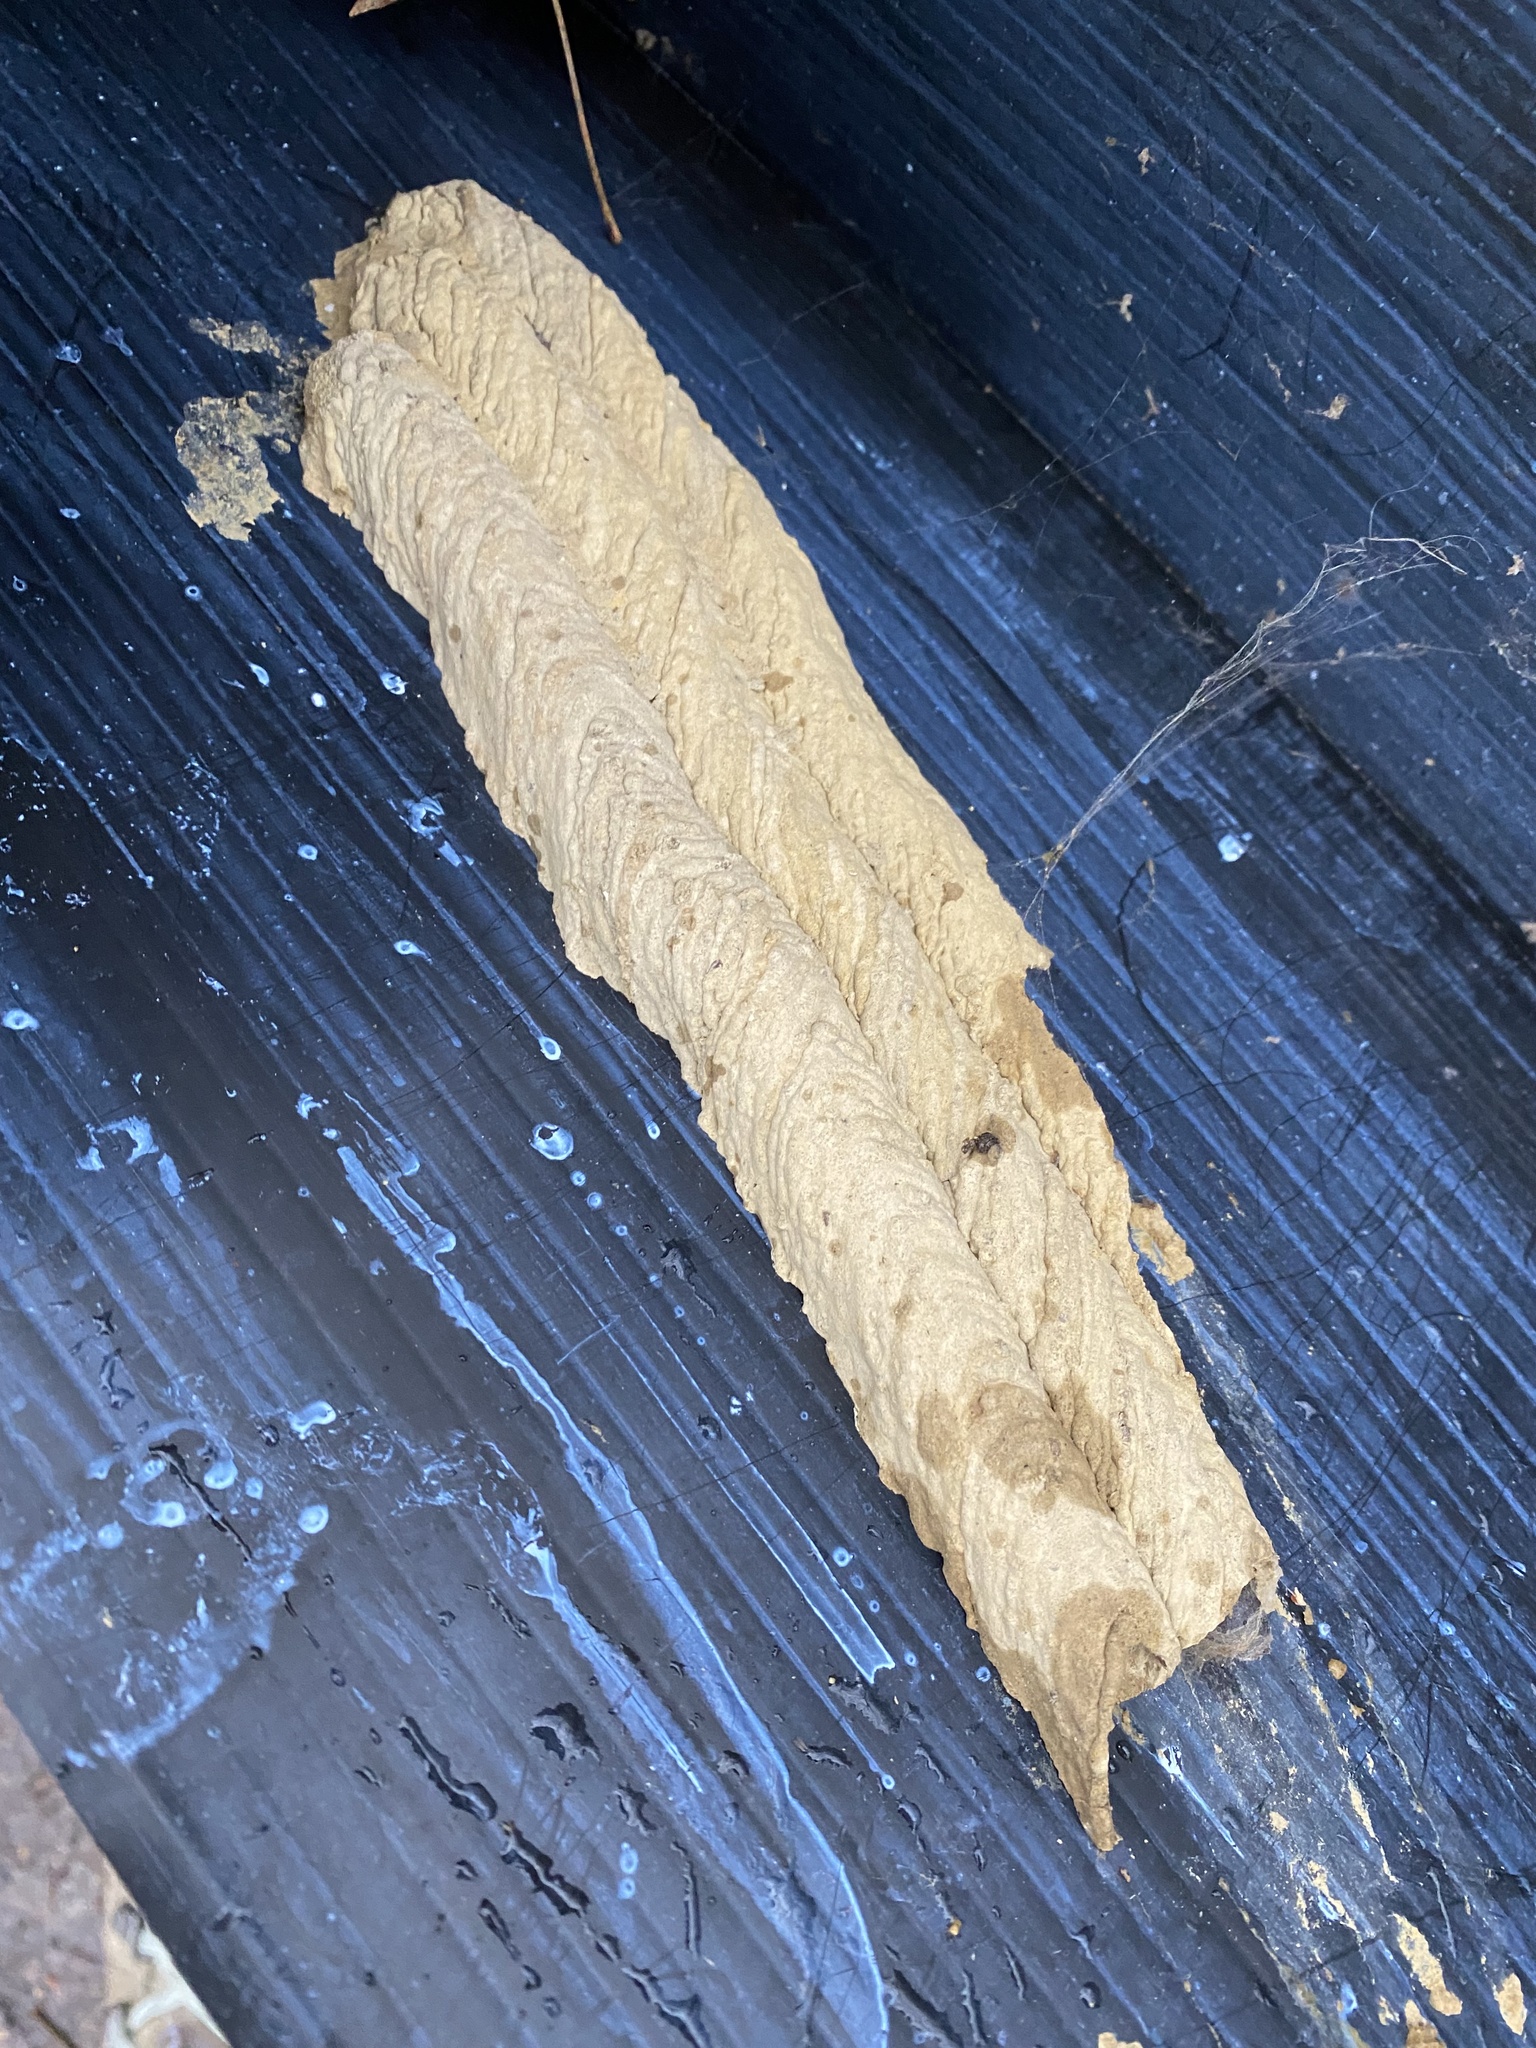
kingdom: Animalia
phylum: Arthropoda
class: Insecta
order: Hymenoptera
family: Crabronidae
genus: Trypoxylon
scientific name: Trypoxylon politum
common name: Organ-pipe mud-dauber wasp
